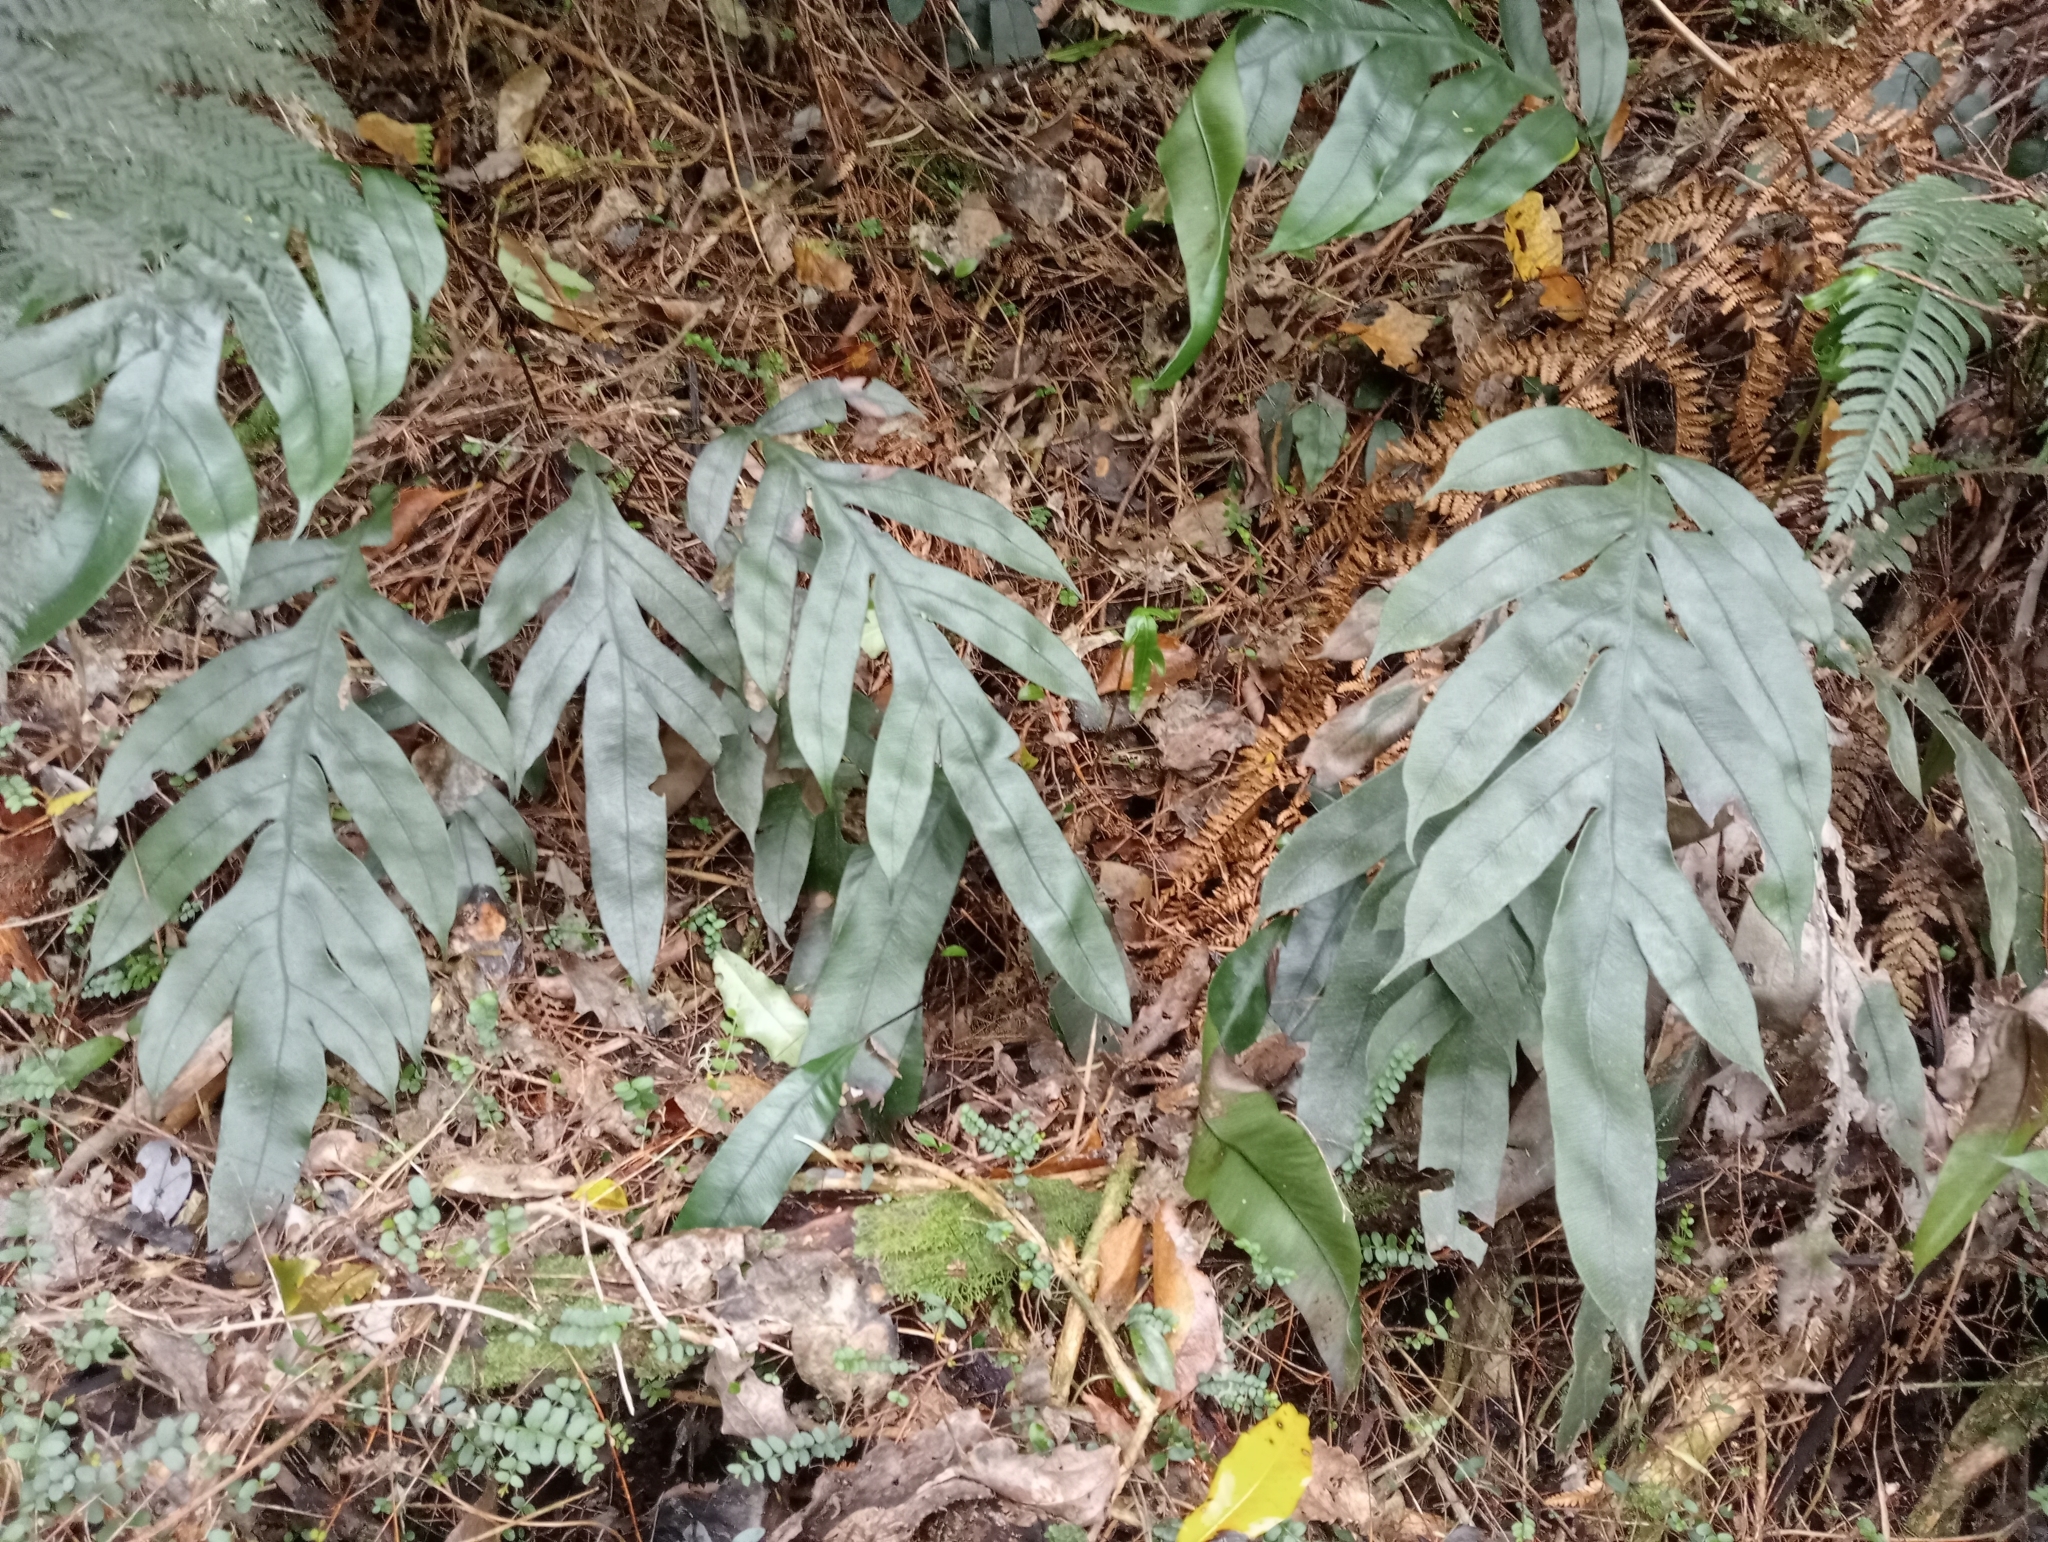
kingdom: Plantae
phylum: Tracheophyta
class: Polypodiopsida
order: Polypodiales
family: Blechnaceae
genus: Austroblechnum
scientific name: Austroblechnum colensoi
